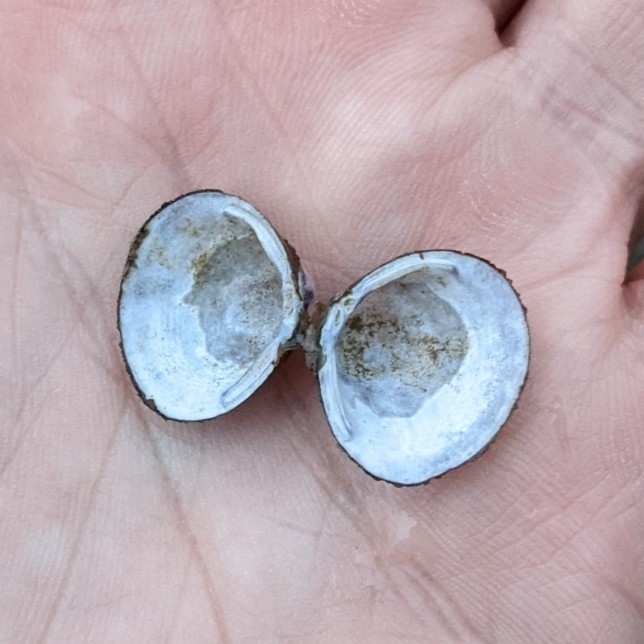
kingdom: Animalia
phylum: Mollusca
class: Bivalvia
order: Venerida
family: Cyrenidae
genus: Corbicula
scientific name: Corbicula fluminea
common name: Asian clam
